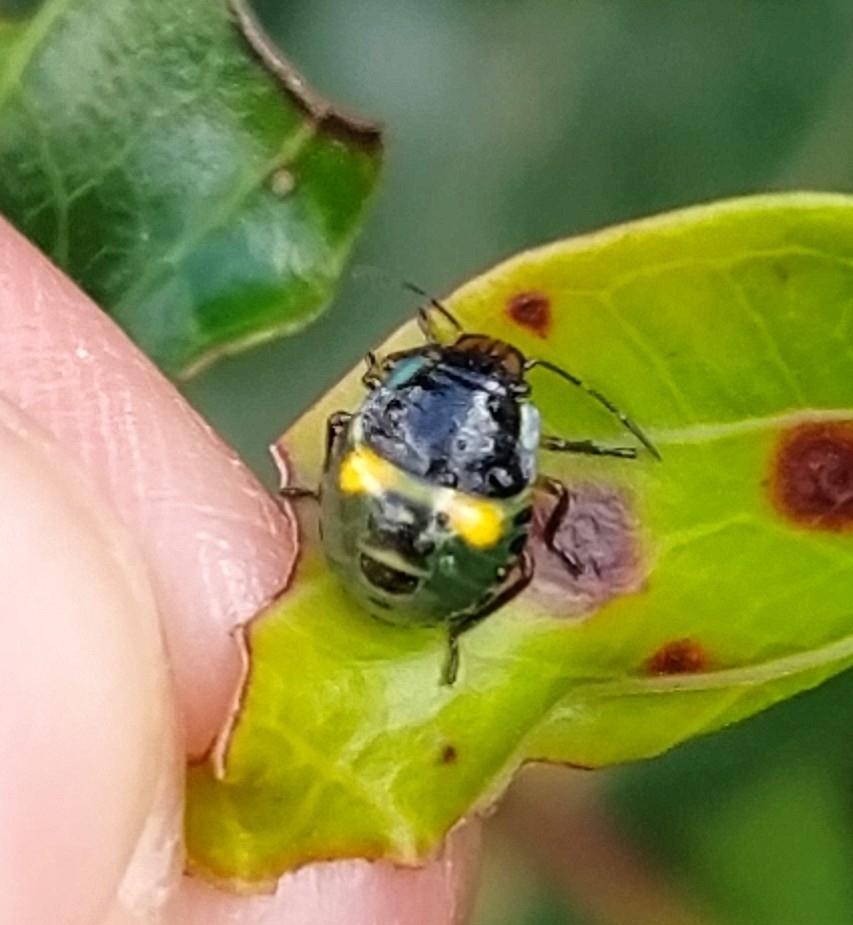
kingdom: Animalia
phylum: Arthropoda
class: Insecta
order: Hemiptera
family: Pentatomidae
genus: Glaucias
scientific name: Glaucias amyota
